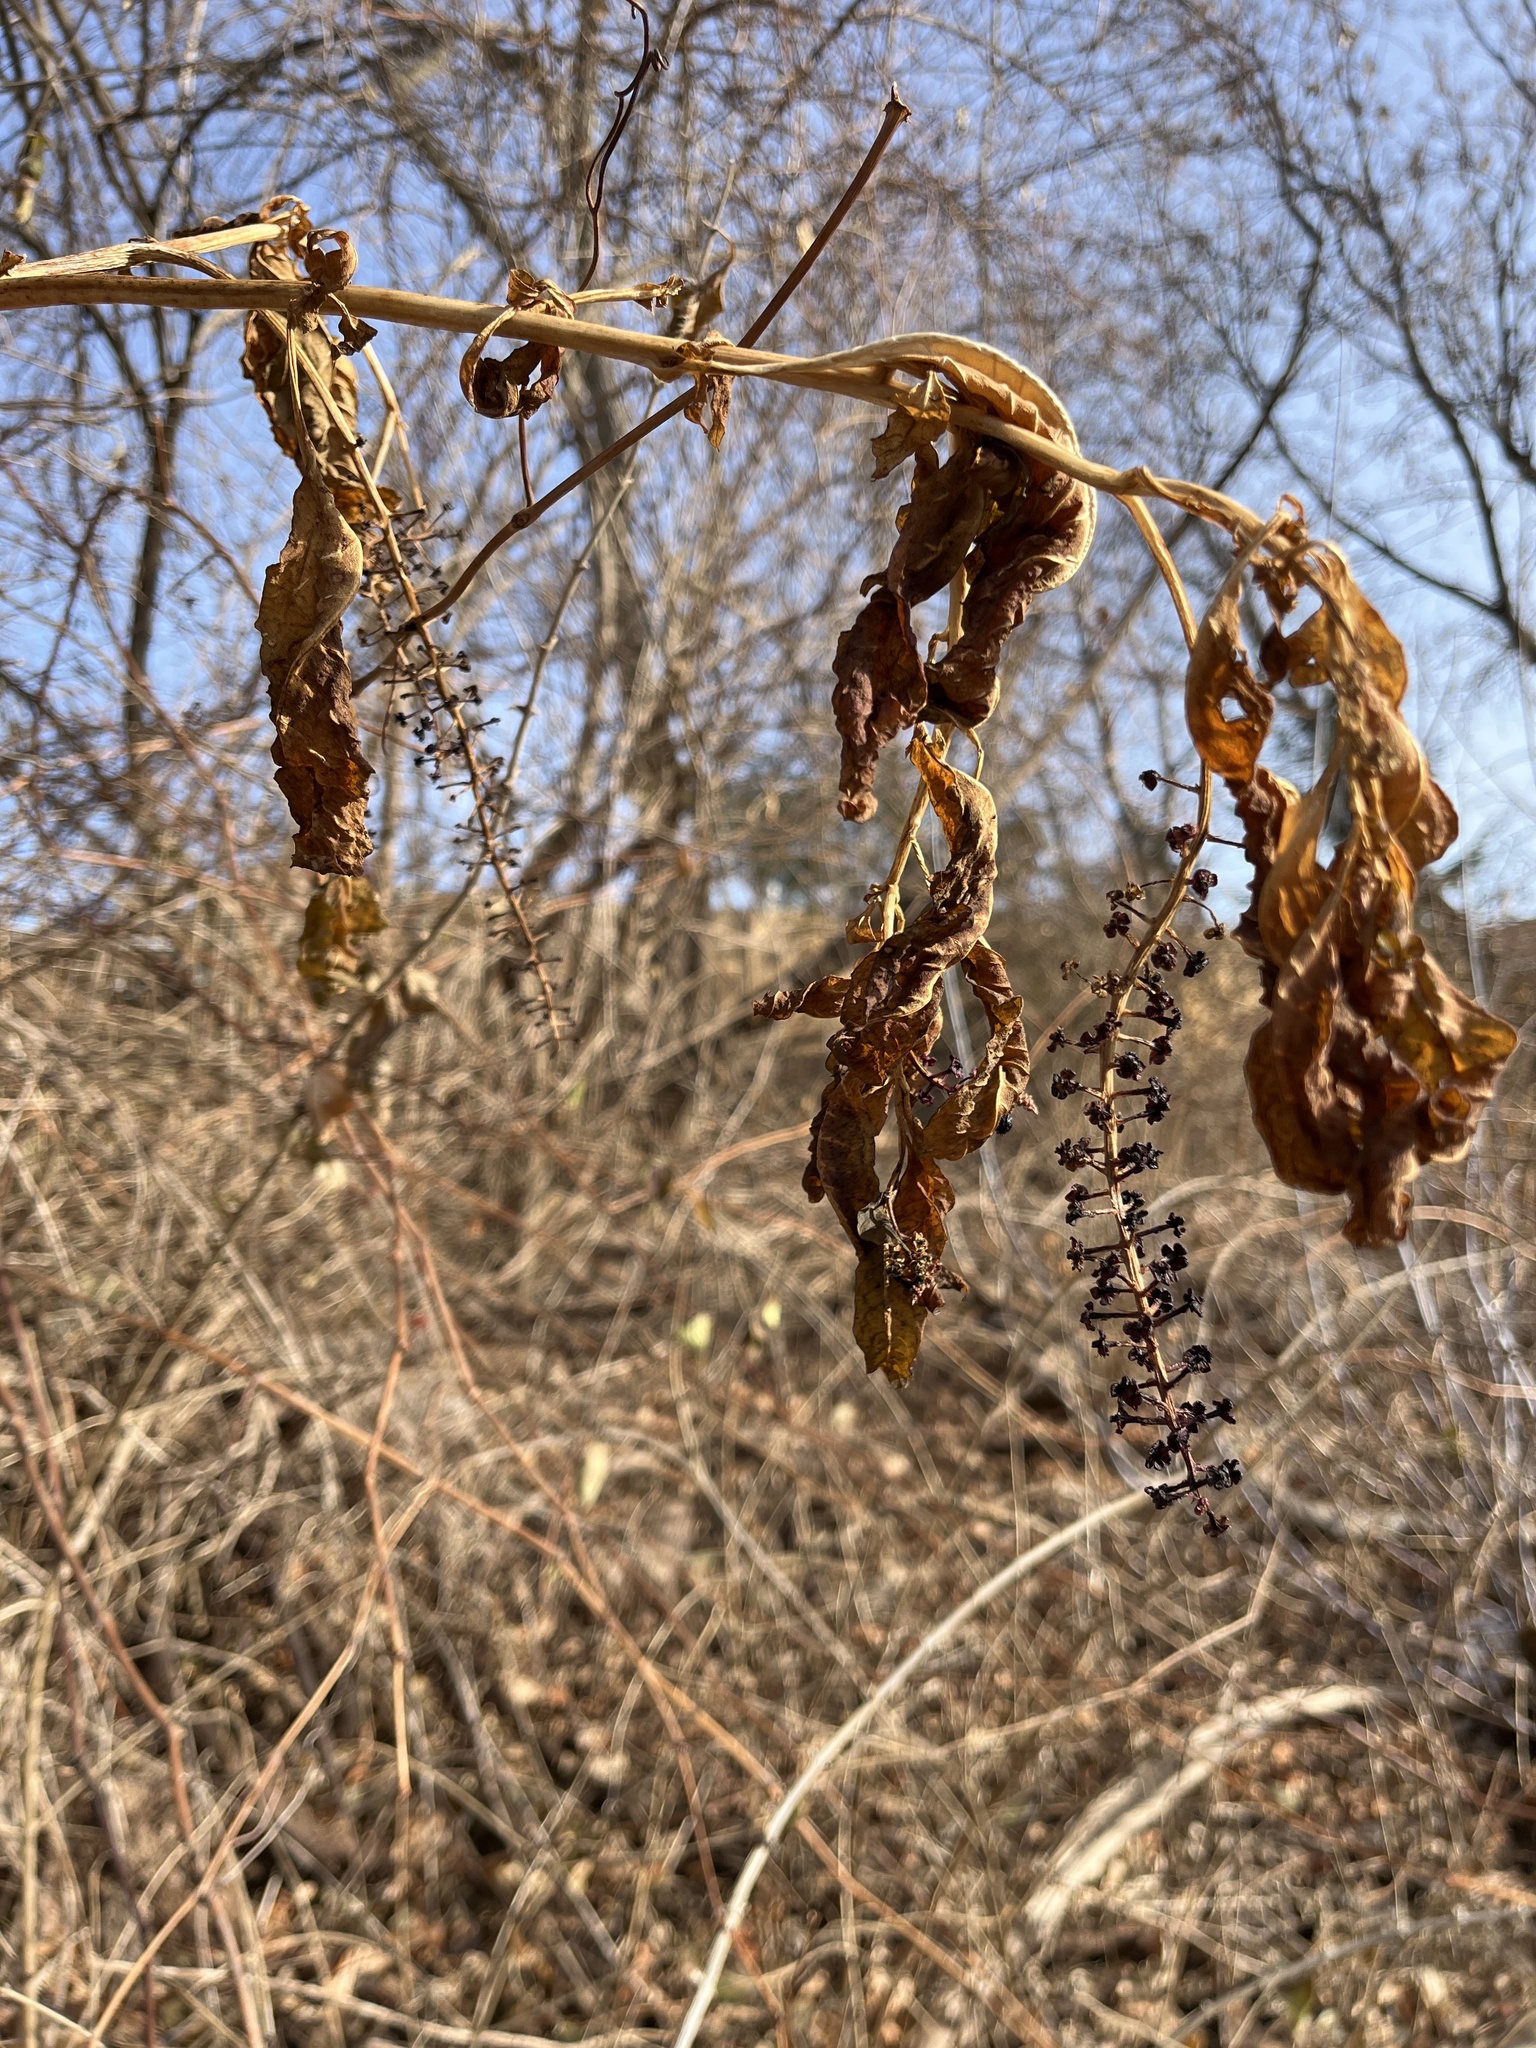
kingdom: Plantae
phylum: Tracheophyta
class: Magnoliopsida
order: Caryophyllales
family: Phytolaccaceae
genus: Phytolacca
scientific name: Phytolacca americana
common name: American pokeweed
